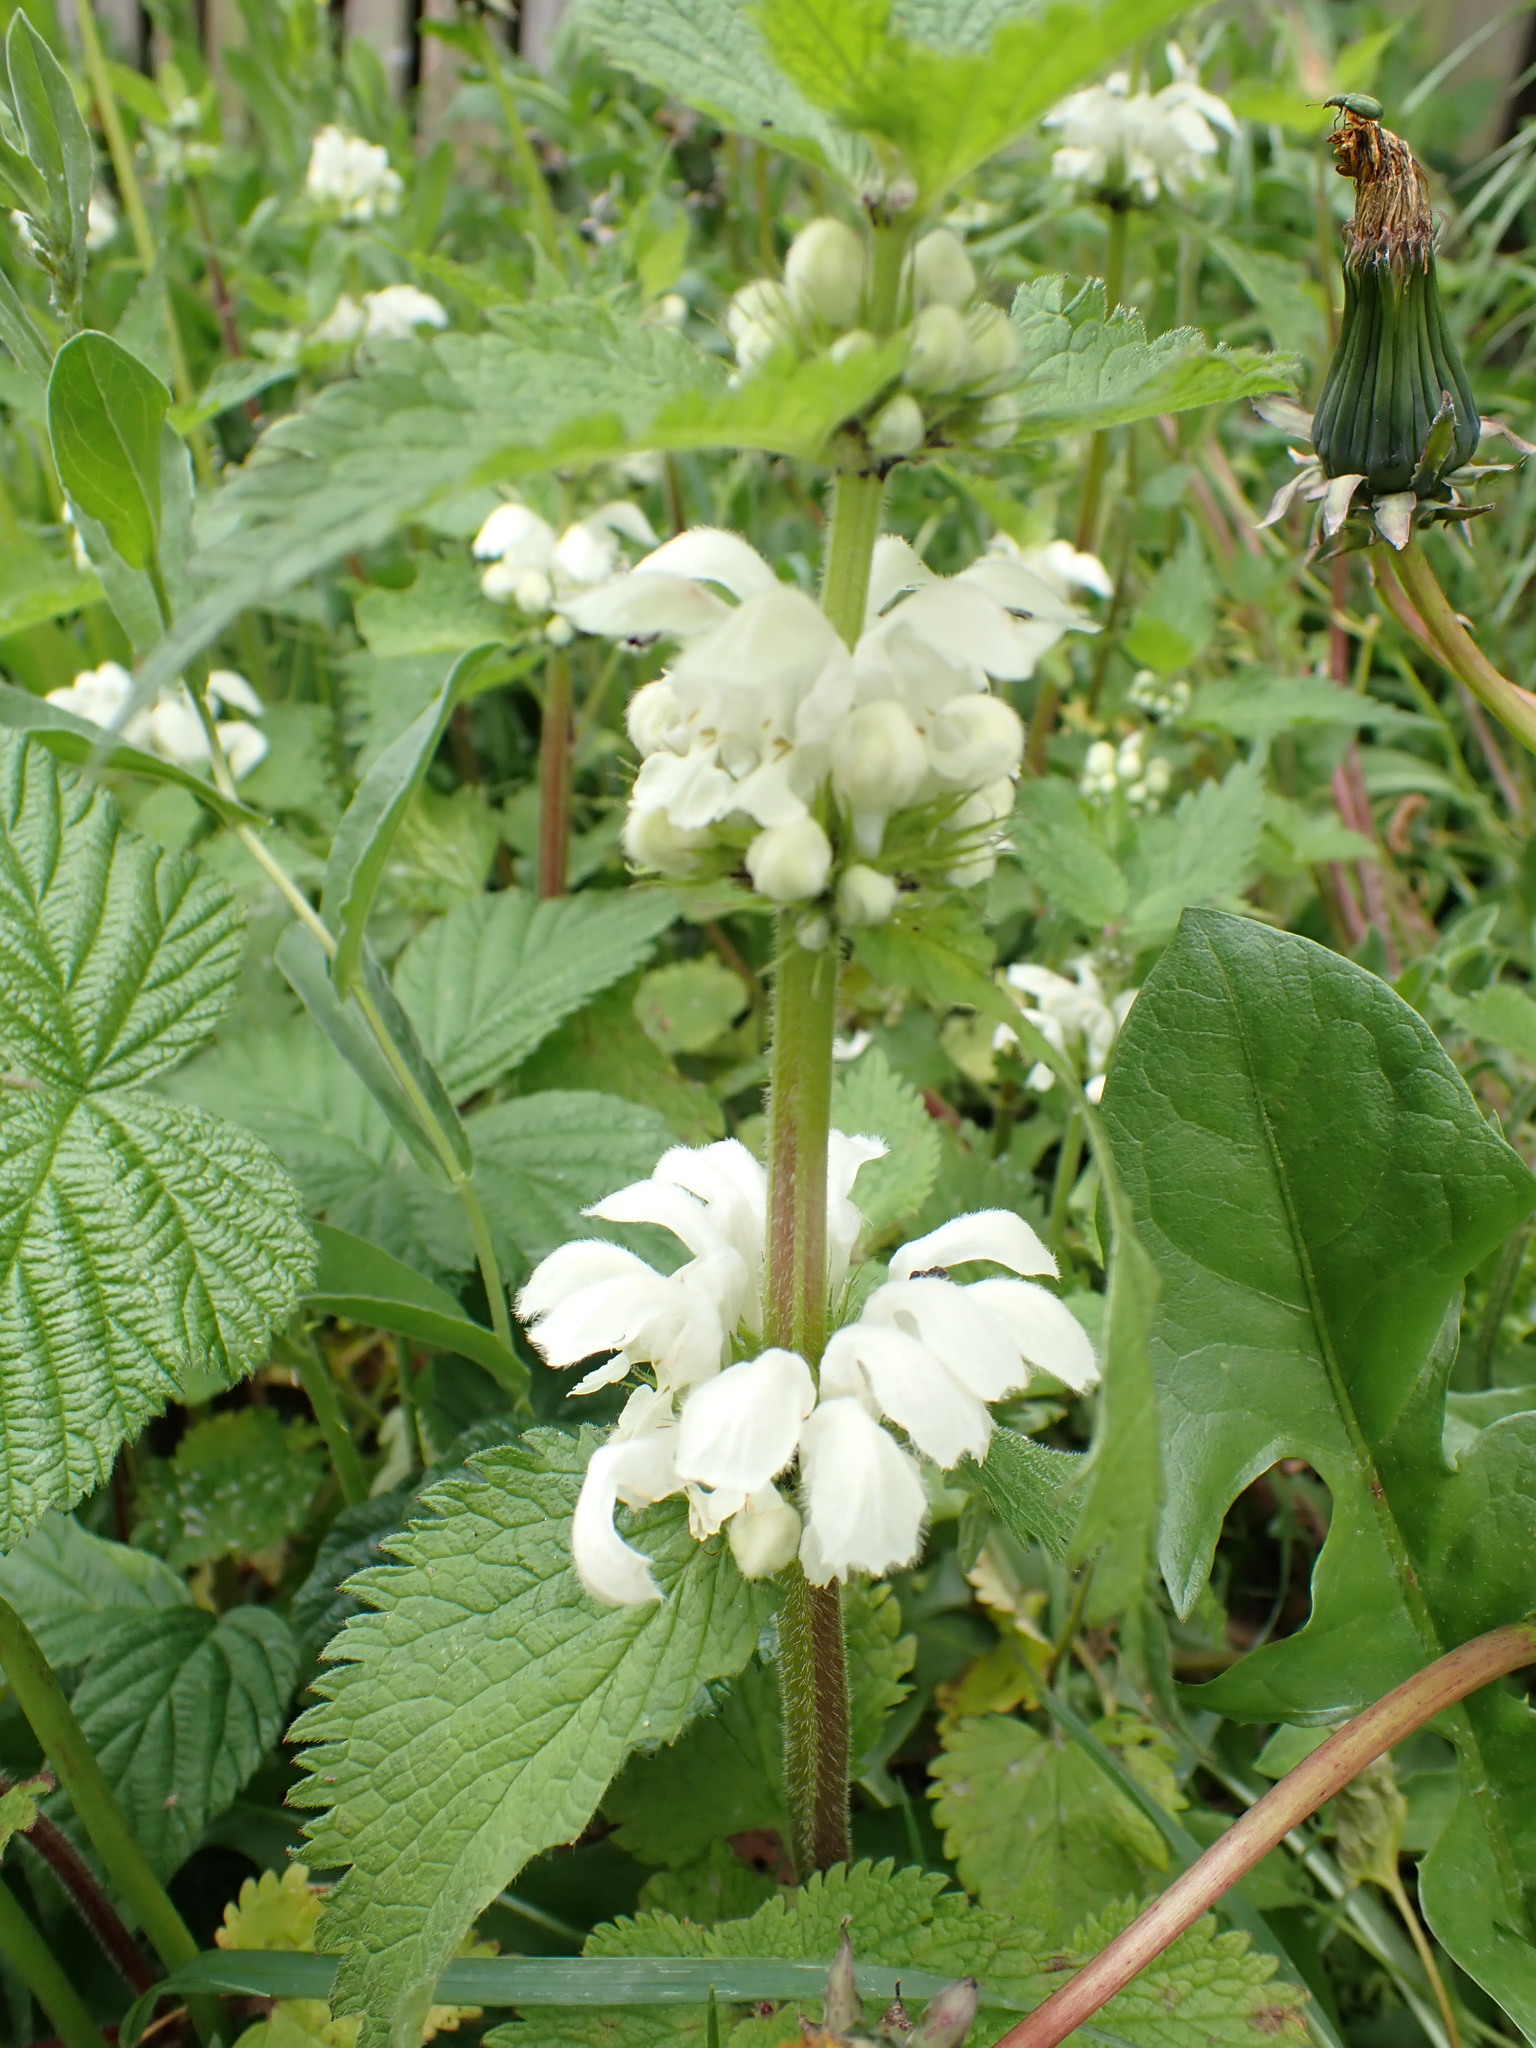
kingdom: Plantae
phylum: Tracheophyta
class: Magnoliopsida
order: Lamiales
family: Lamiaceae
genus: Lamium
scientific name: Lamium album
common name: White dead-nettle
